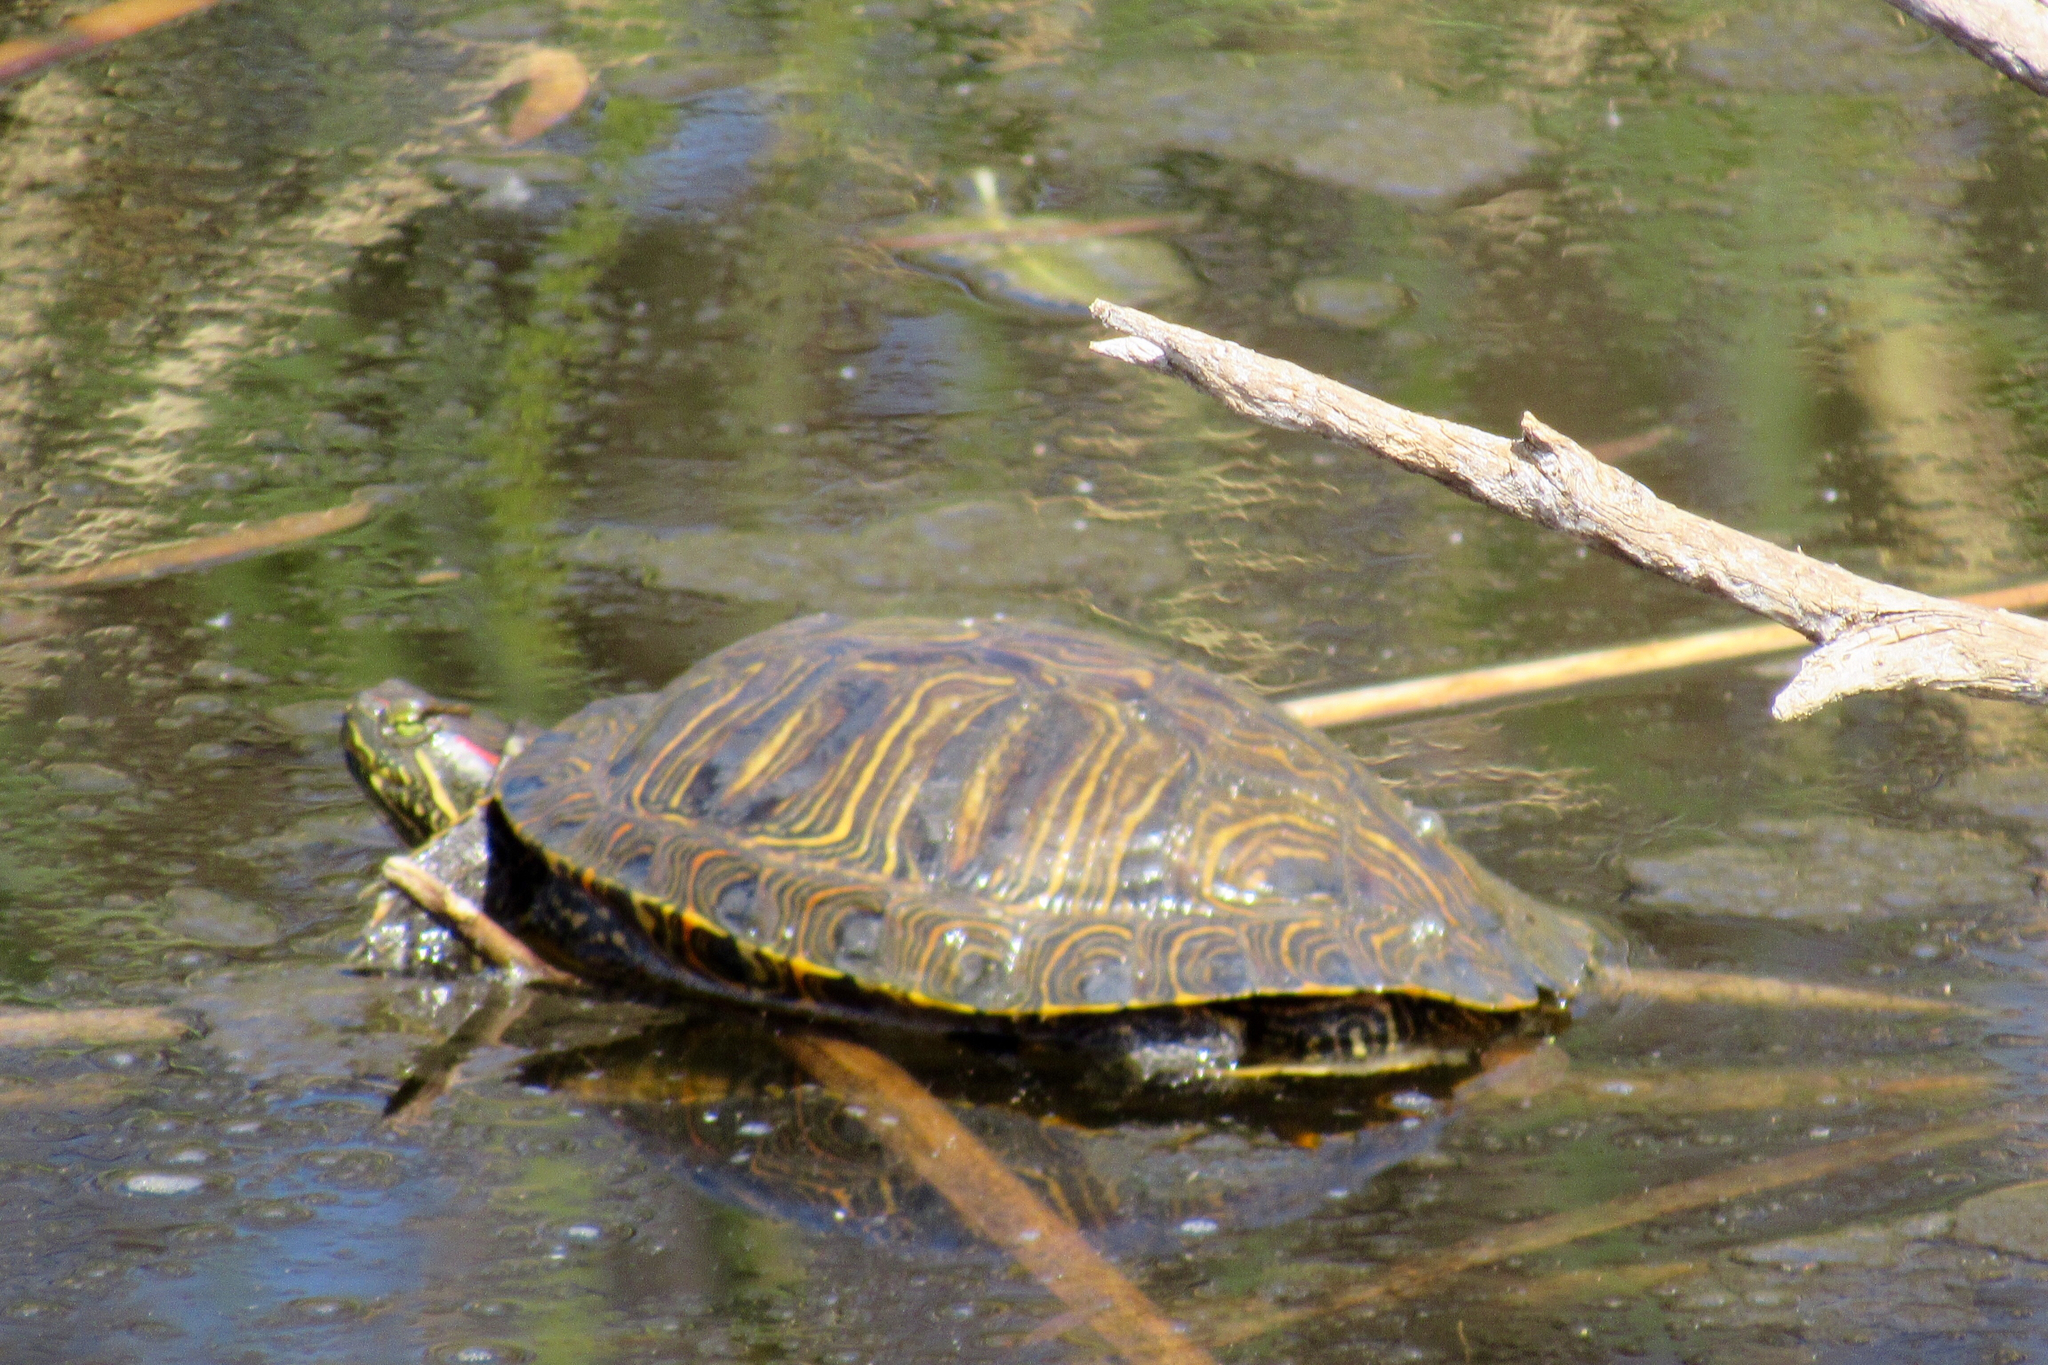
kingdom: Animalia
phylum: Chordata
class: Testudines
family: Emydidae
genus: Trachemys
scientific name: Trachemys scripta
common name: Slider
